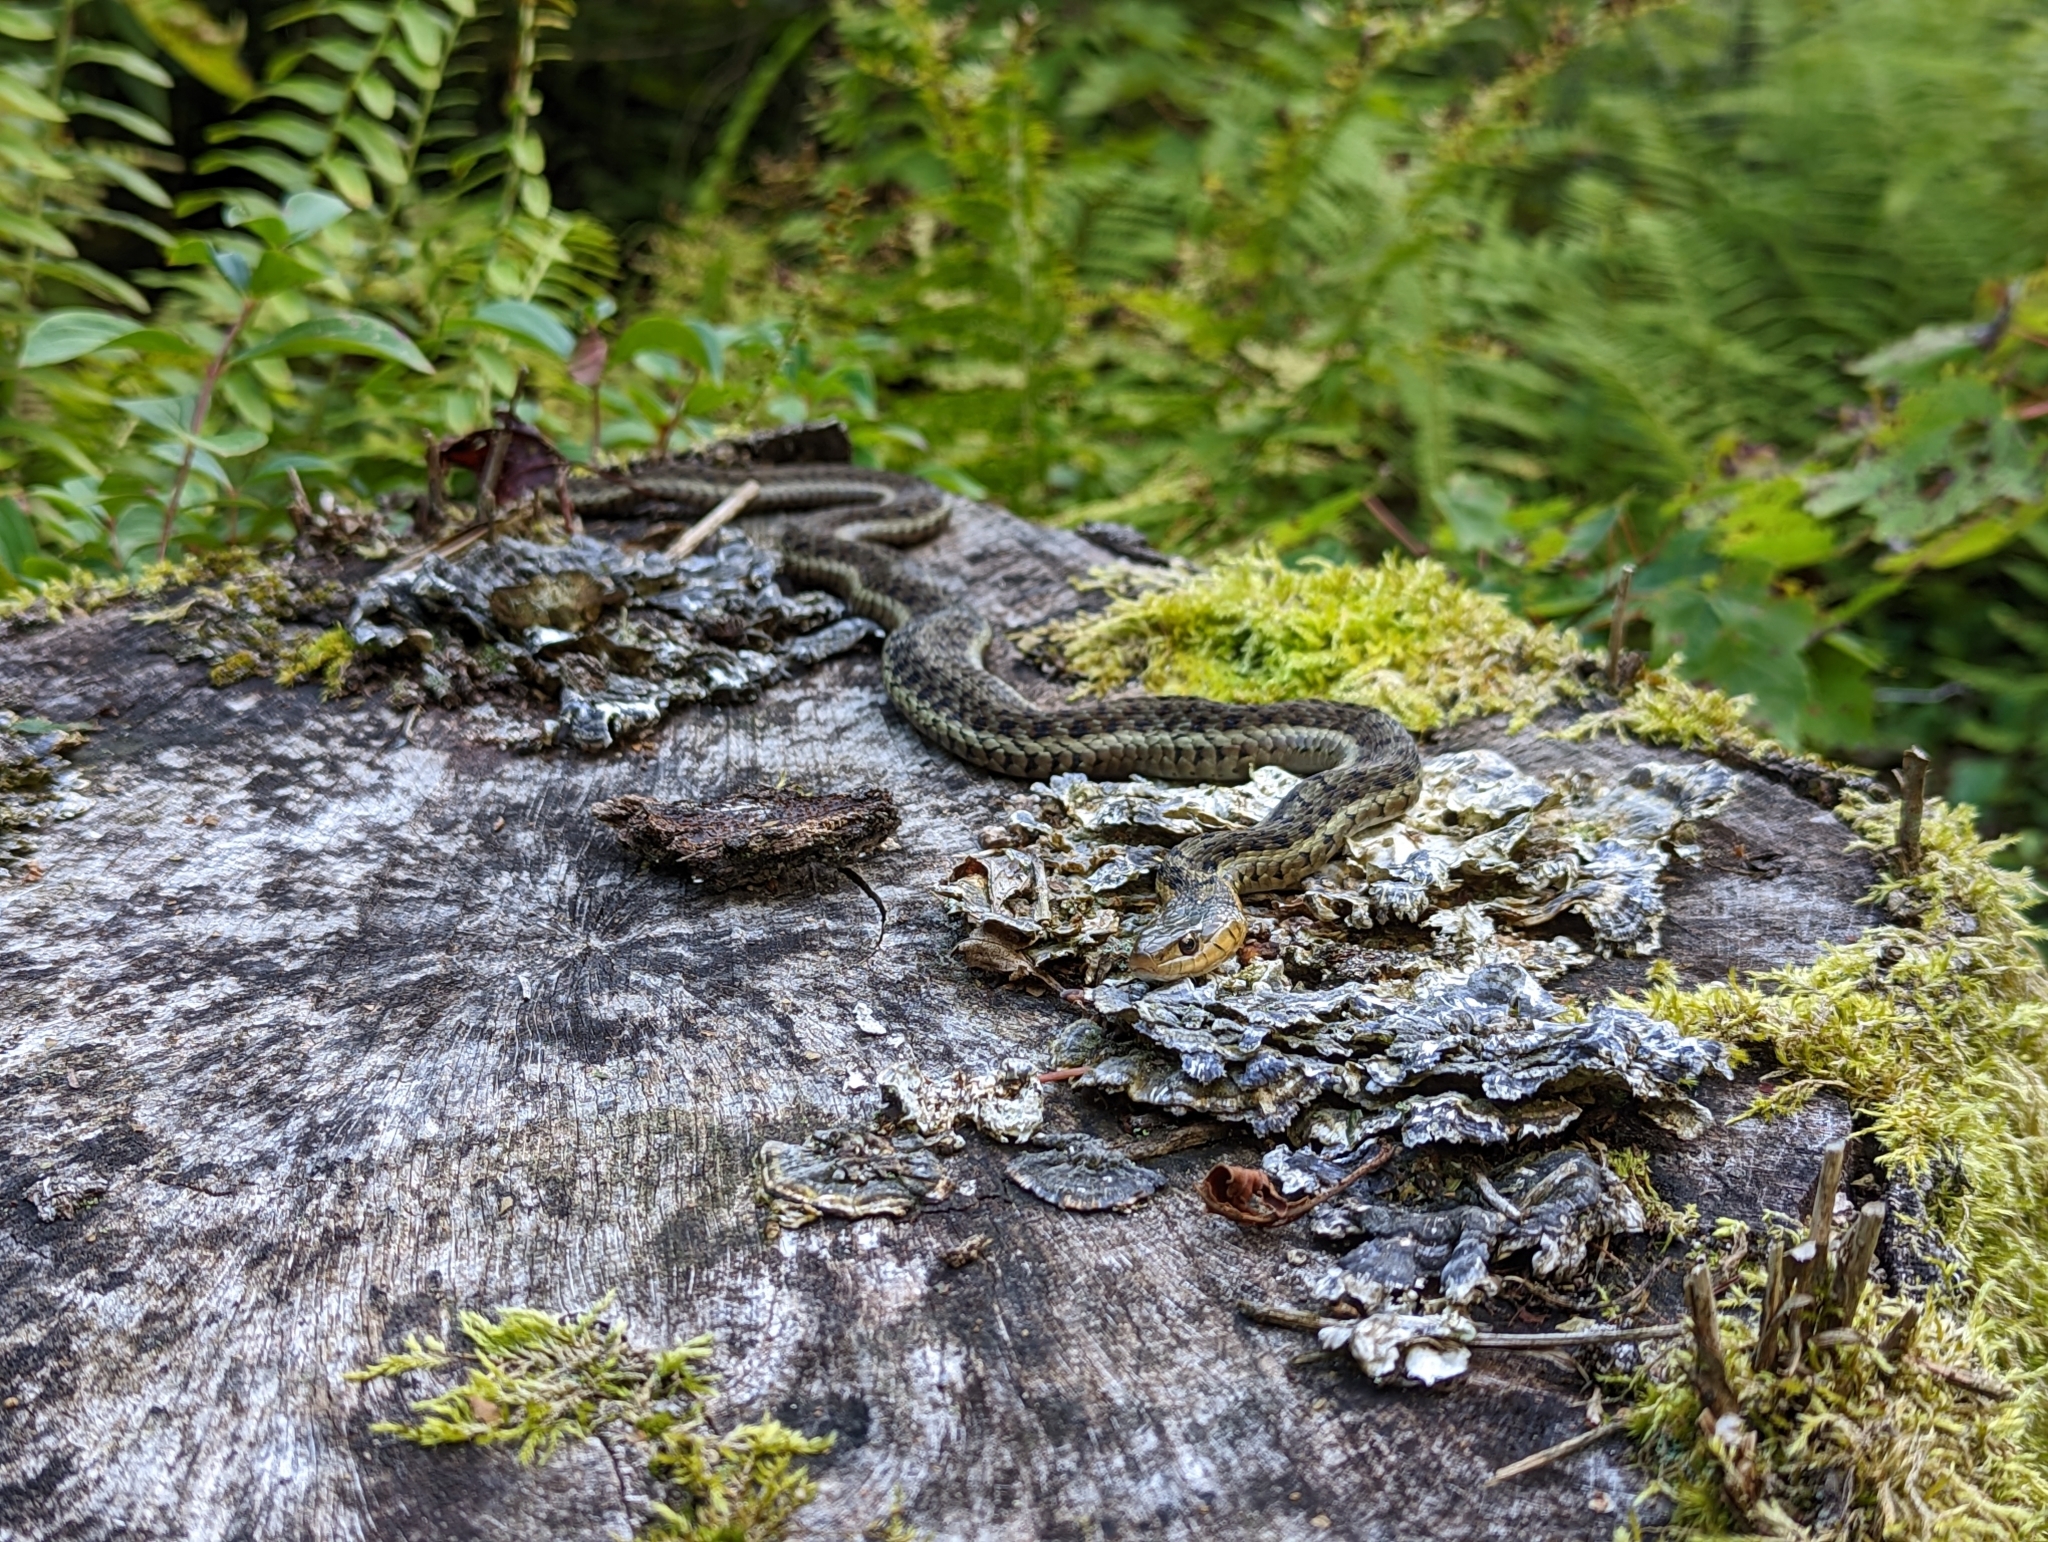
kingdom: Animalia
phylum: Chordata
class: Squamata
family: Colubridae
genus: Thamnophis
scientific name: Thamnophis sirtalis
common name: Common garter snake
